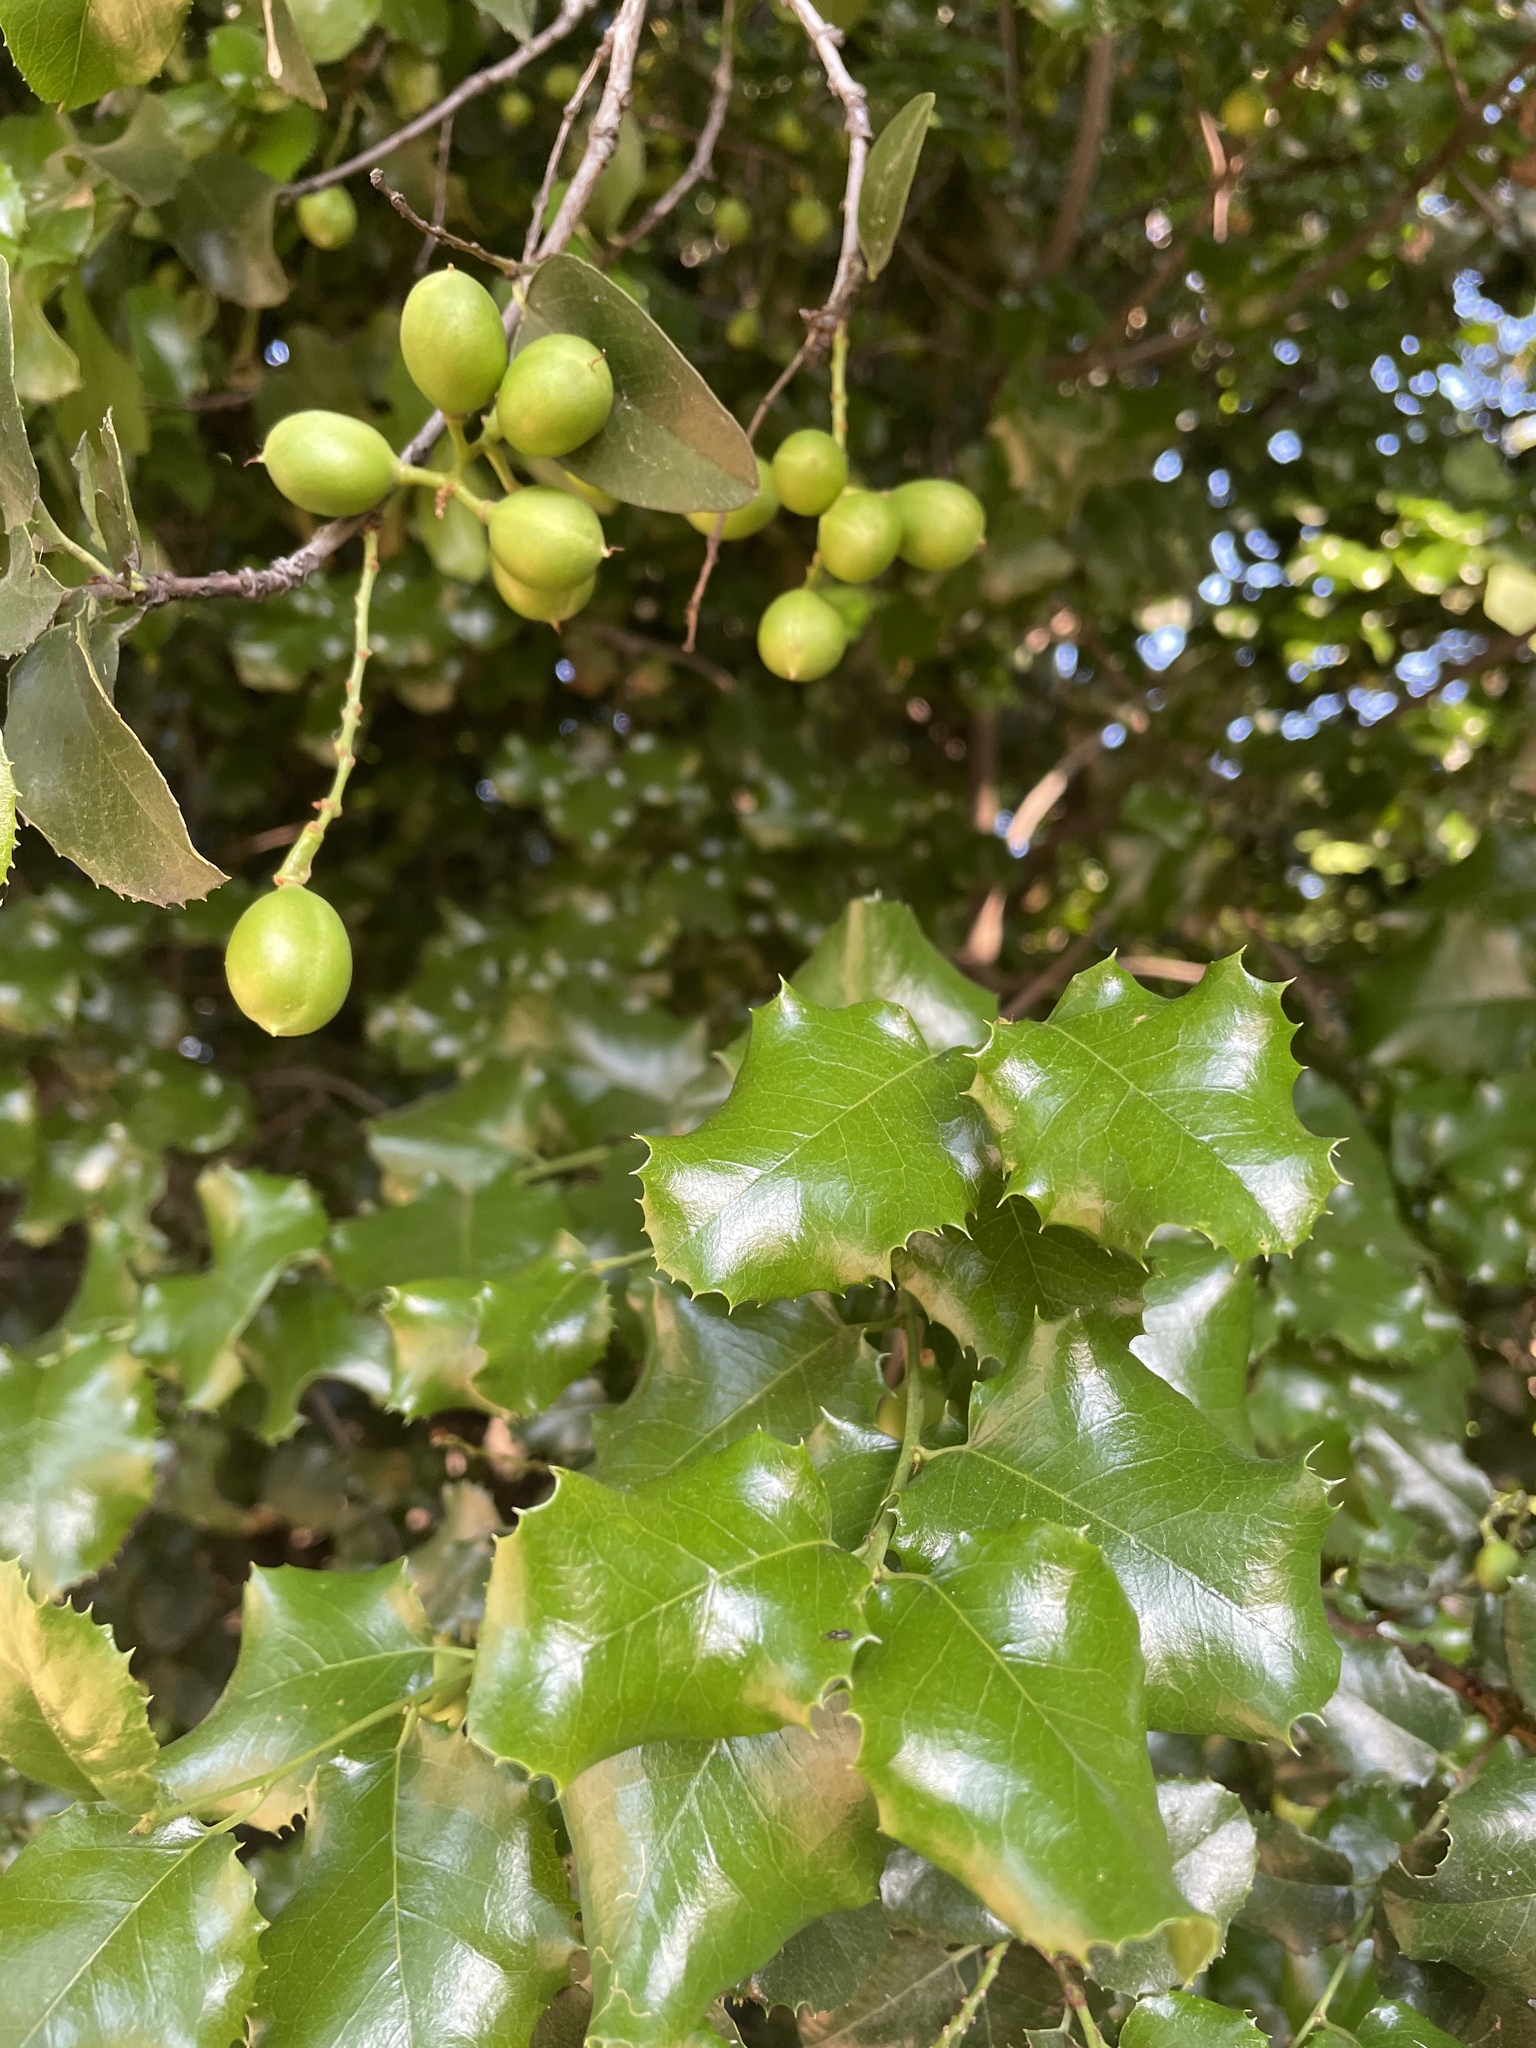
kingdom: Plantae
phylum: Tracheophyta
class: Magnoliopsida
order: Rosales
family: Rosaceae
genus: Prunus
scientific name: Prunus ilicifolia
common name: Hollyleaf cherry
